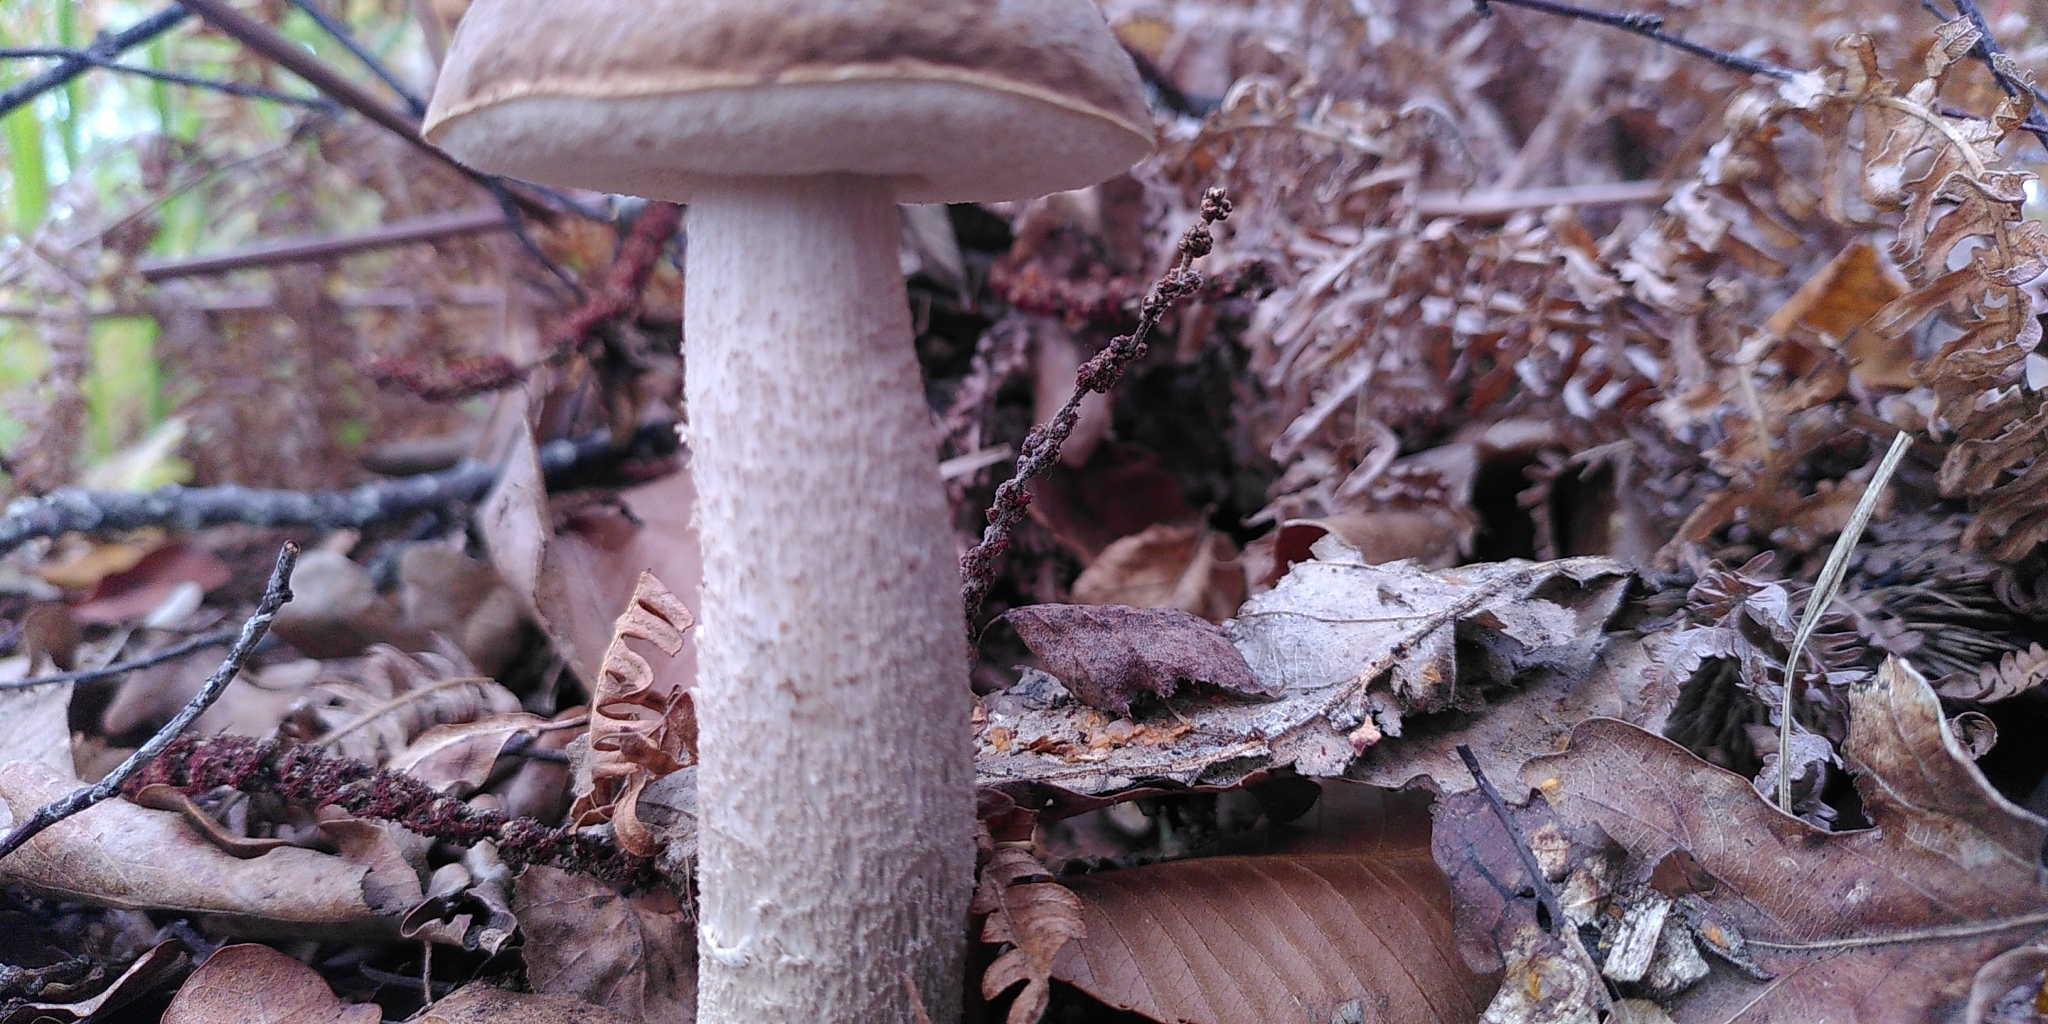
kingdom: Fungi
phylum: Basidiomycota
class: Agaricomycetes
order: Boletales
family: Boletaceae
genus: Leccinum
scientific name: Leccinum scabrum
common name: Blushing bolete
